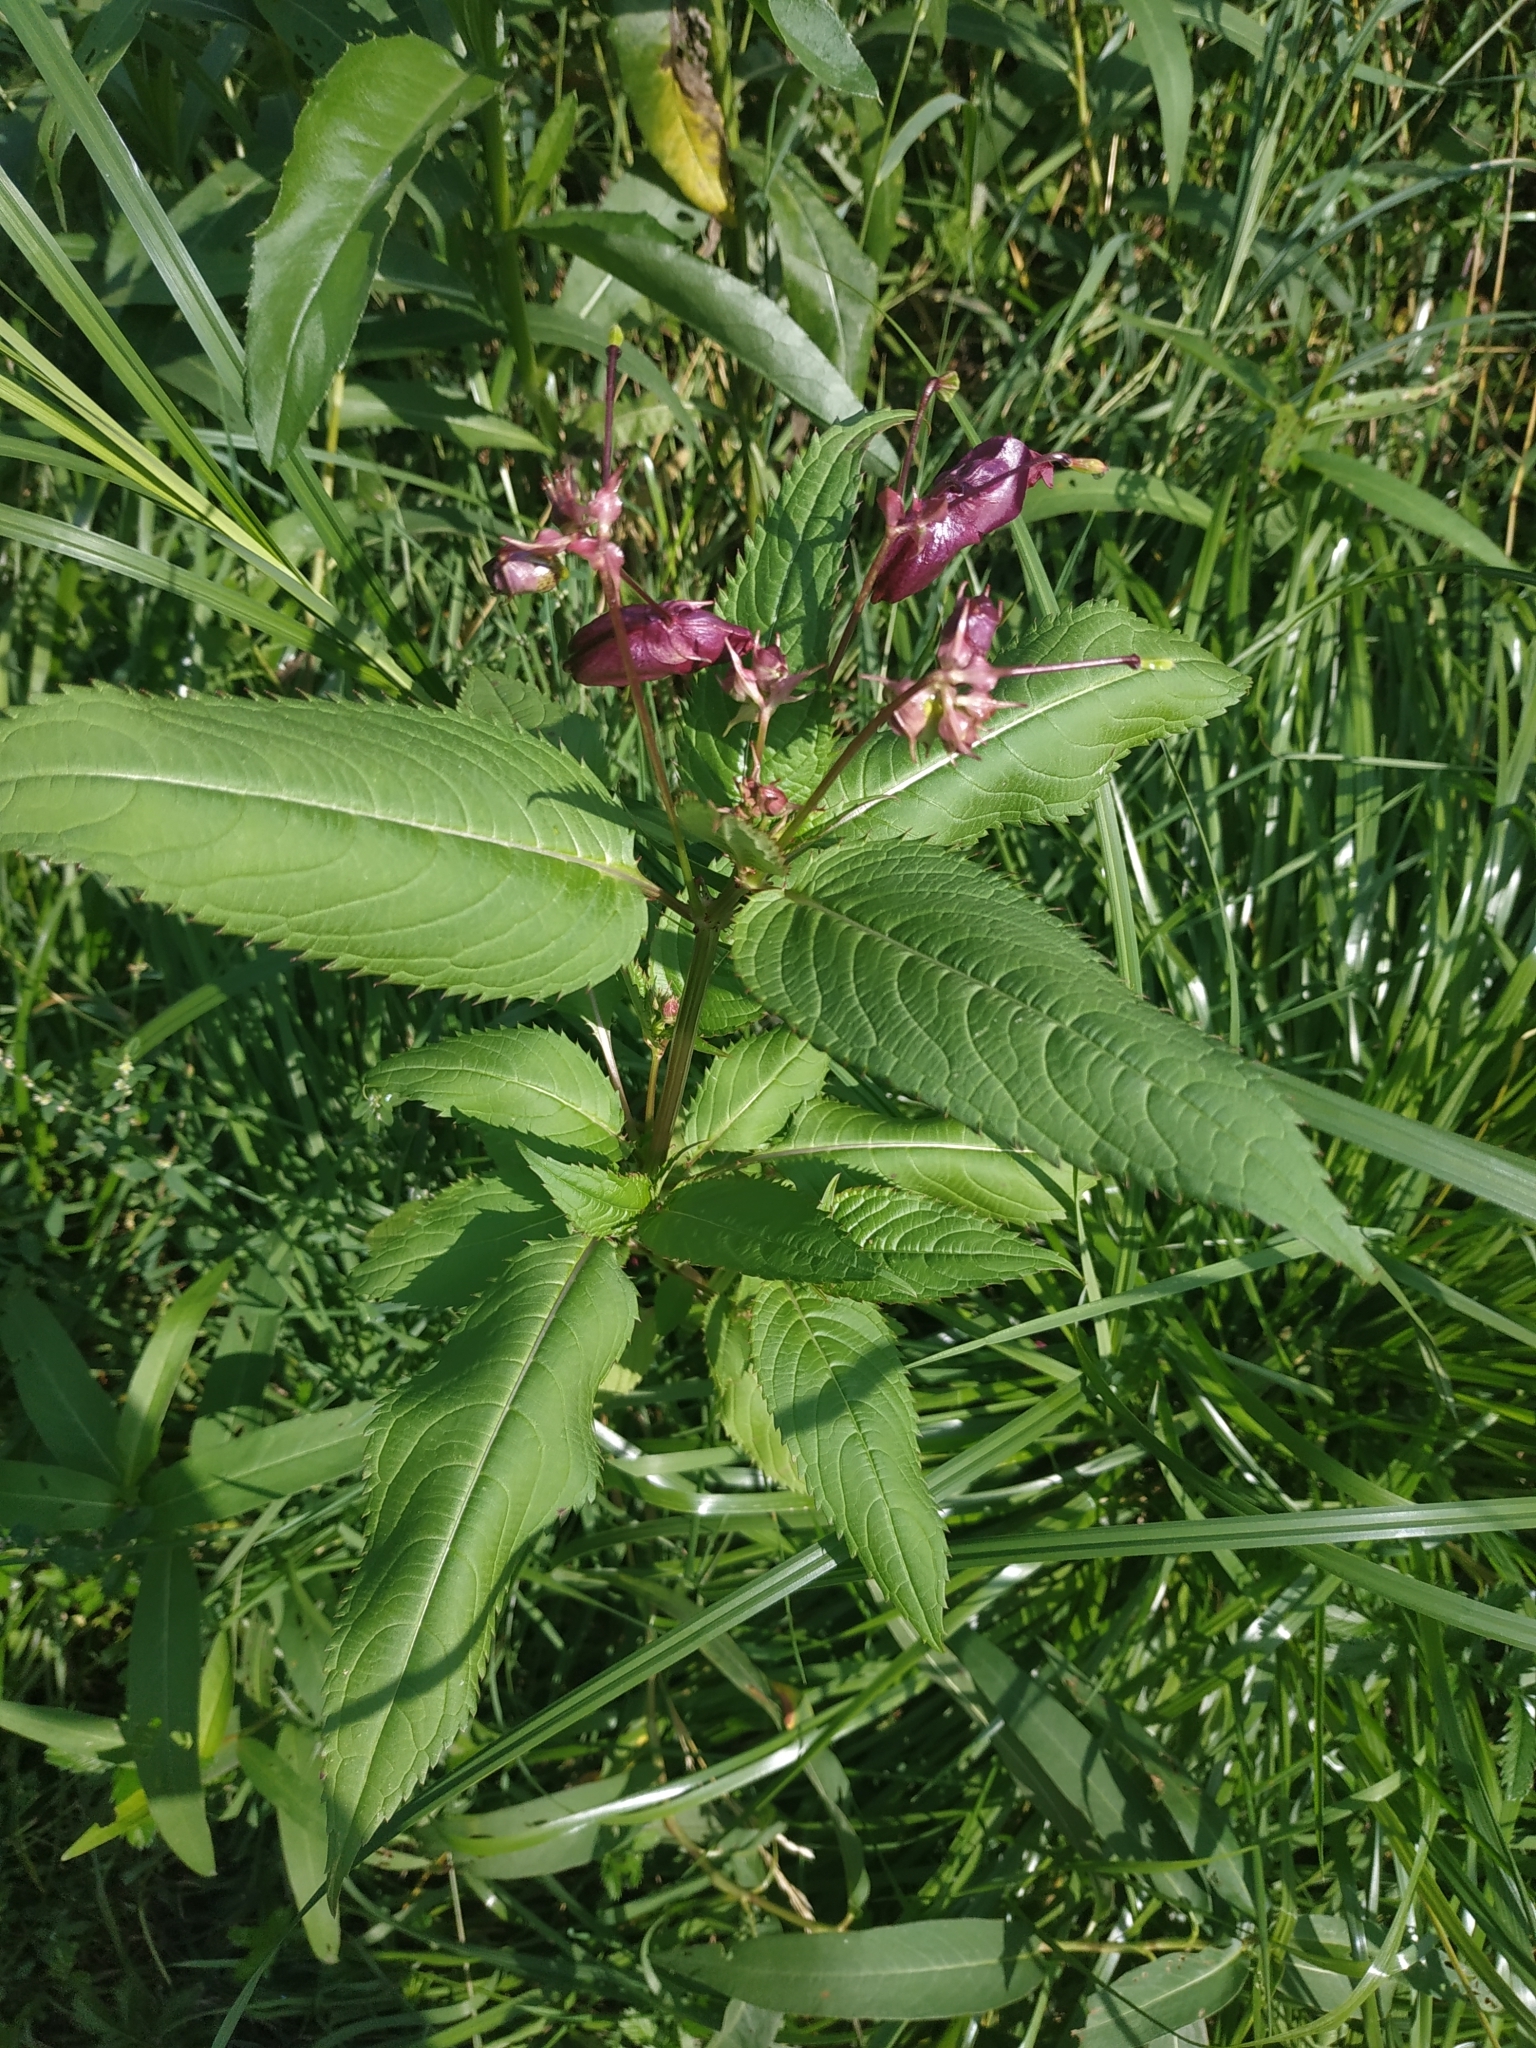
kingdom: Plantae
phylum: Tracheophyta
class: Magnoliopsida
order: Ericales
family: Balsaminaceae
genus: Impatiens
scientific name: Impatiens glandulifera
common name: Himalayan balsam
